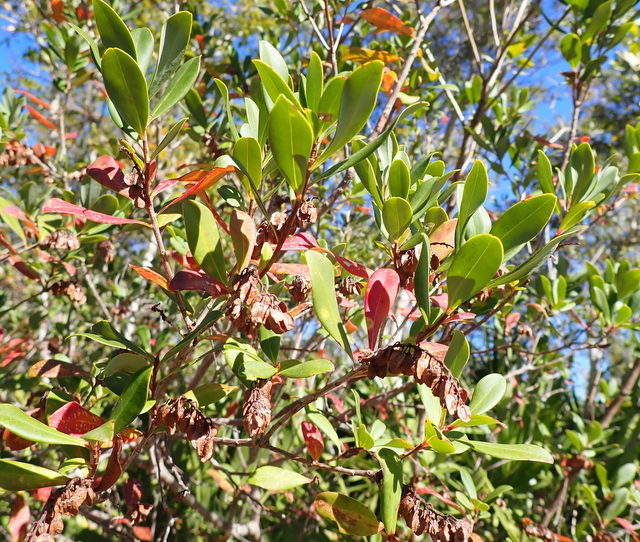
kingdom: Plantae
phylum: Tracheophyta
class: Magnoliopsida
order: Ericales
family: Cyrillaceae
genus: Cliftonia
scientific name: Cliftonia monophylla
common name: Titi
